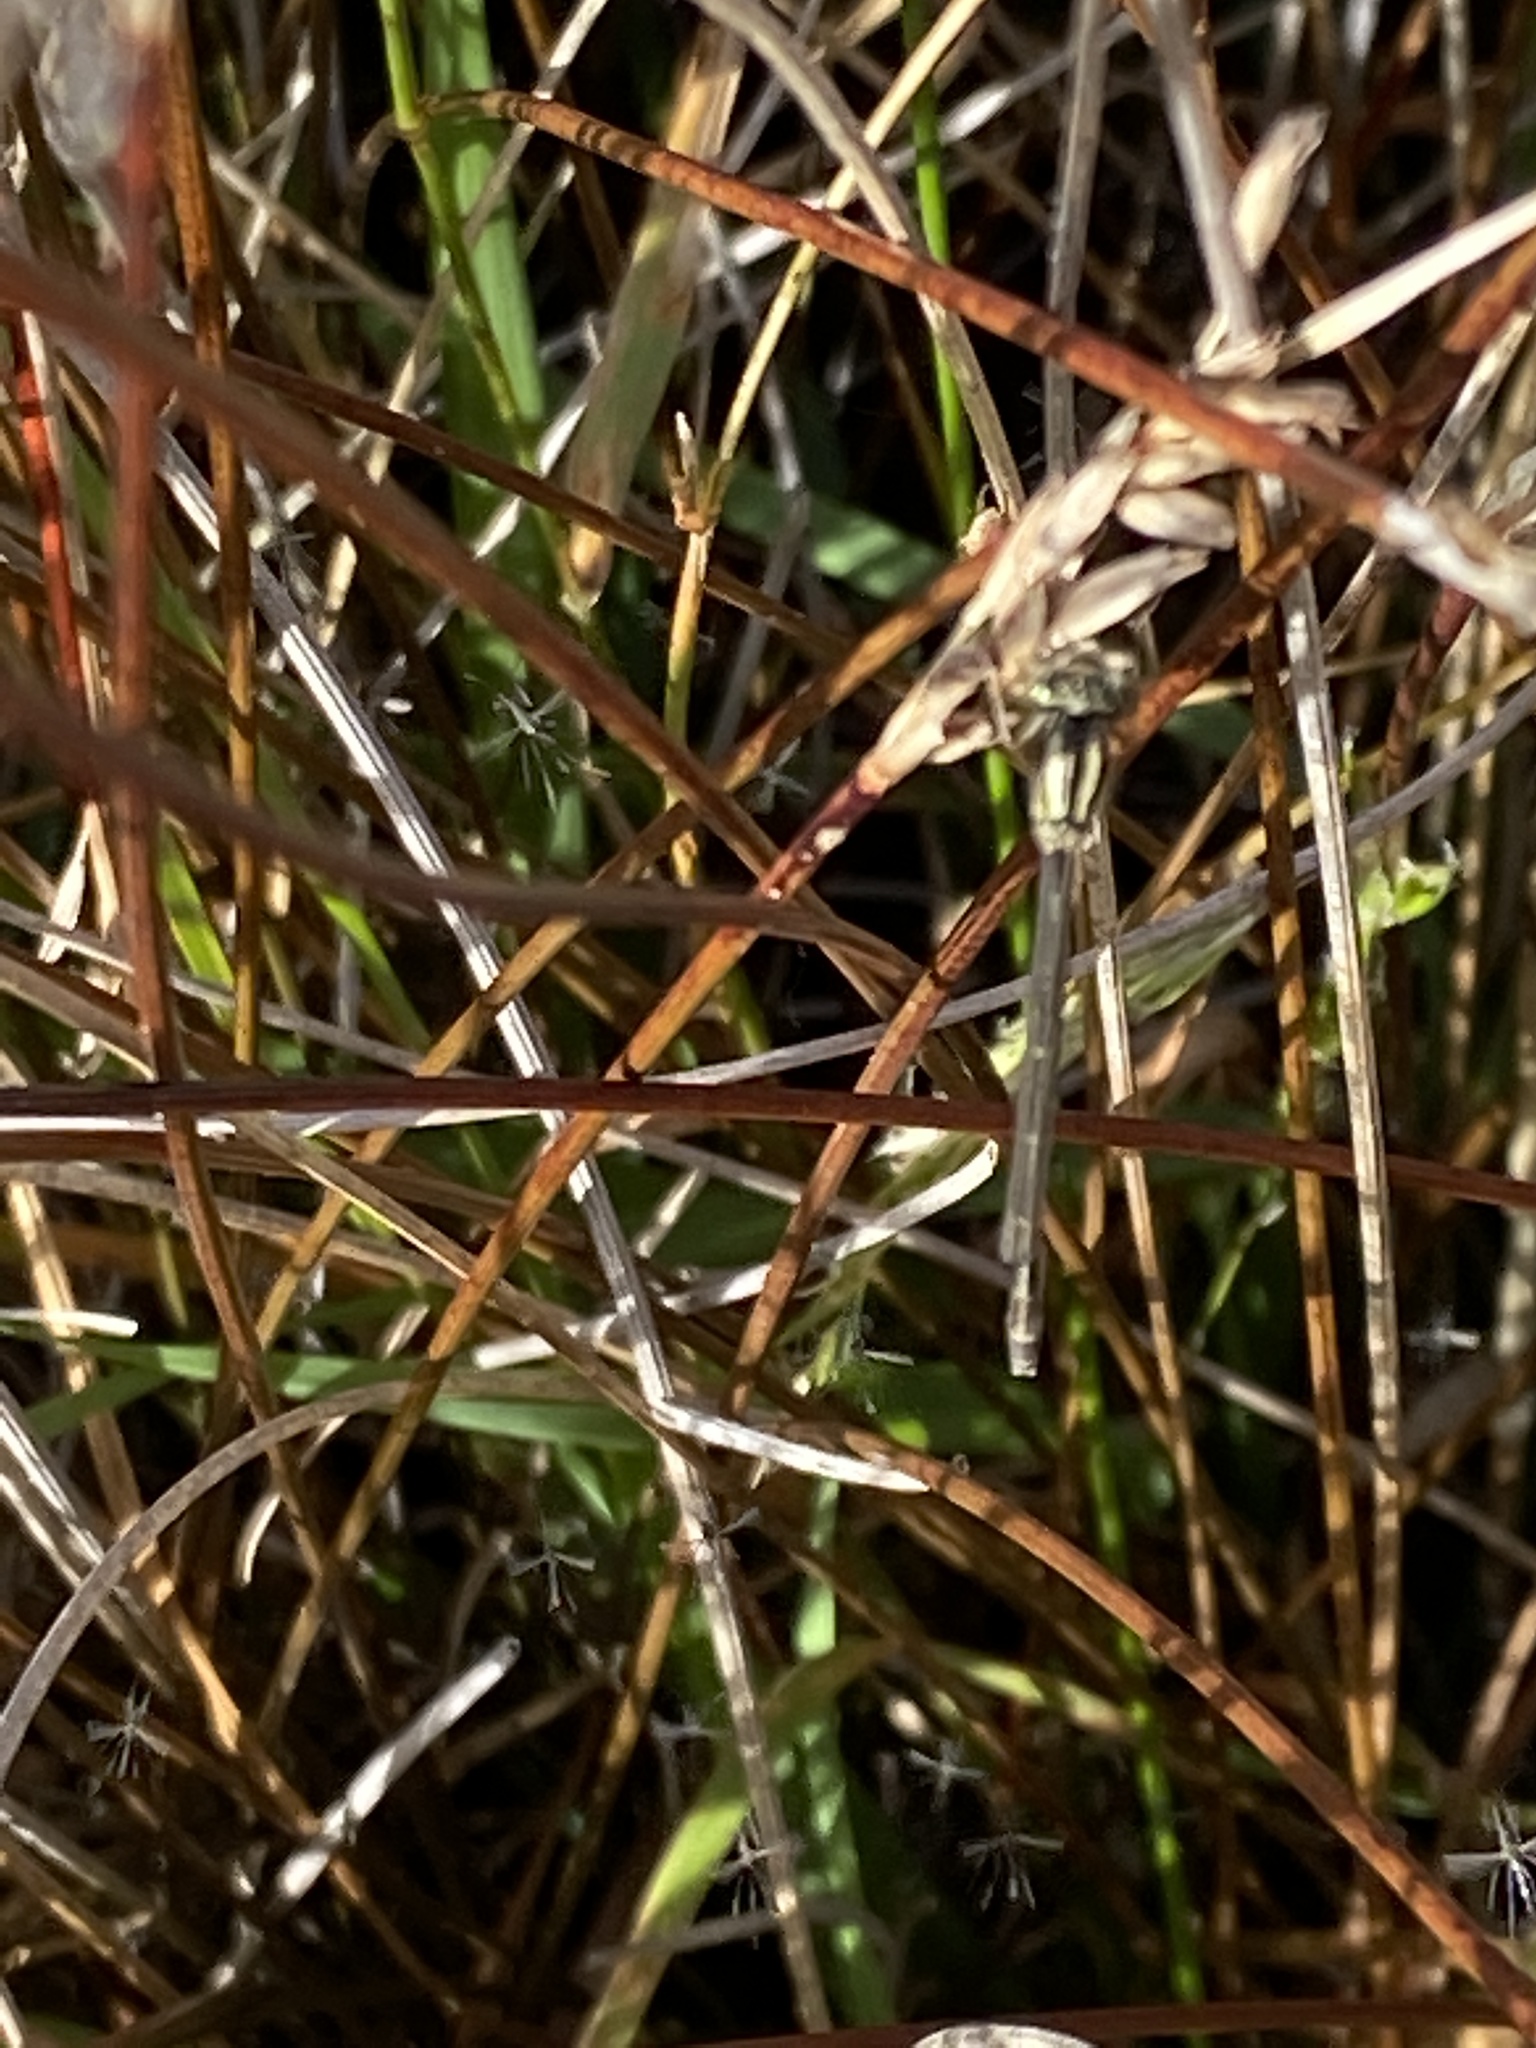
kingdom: Animalia
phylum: Arthropoda
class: Insecta
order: Odonata
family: Coenagrionidae
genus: Xanthocnemis
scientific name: Xanthocnemis zealandica
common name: Common redcoat damselfly
